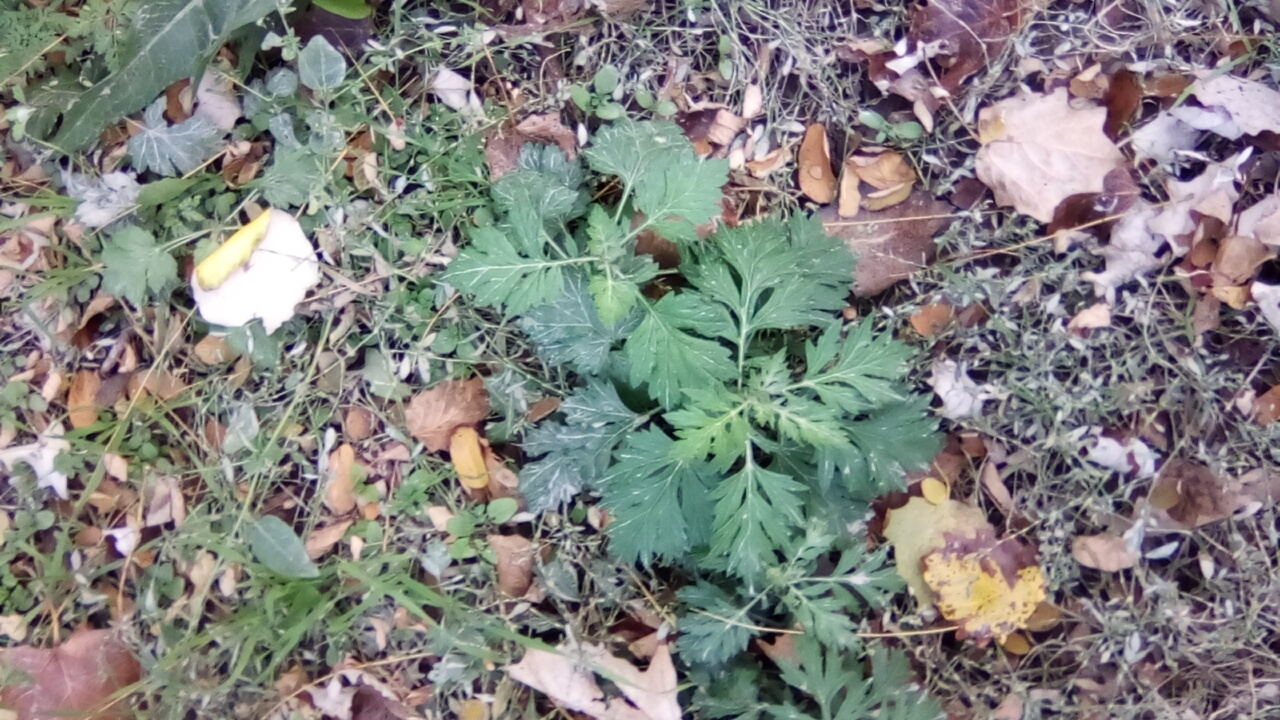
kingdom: Plantae
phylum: Tracheophyta
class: Magnoliopsida
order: Asterales
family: Asteraceae
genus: Artemisia
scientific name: Artemisia vulgaris
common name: Mugwort
